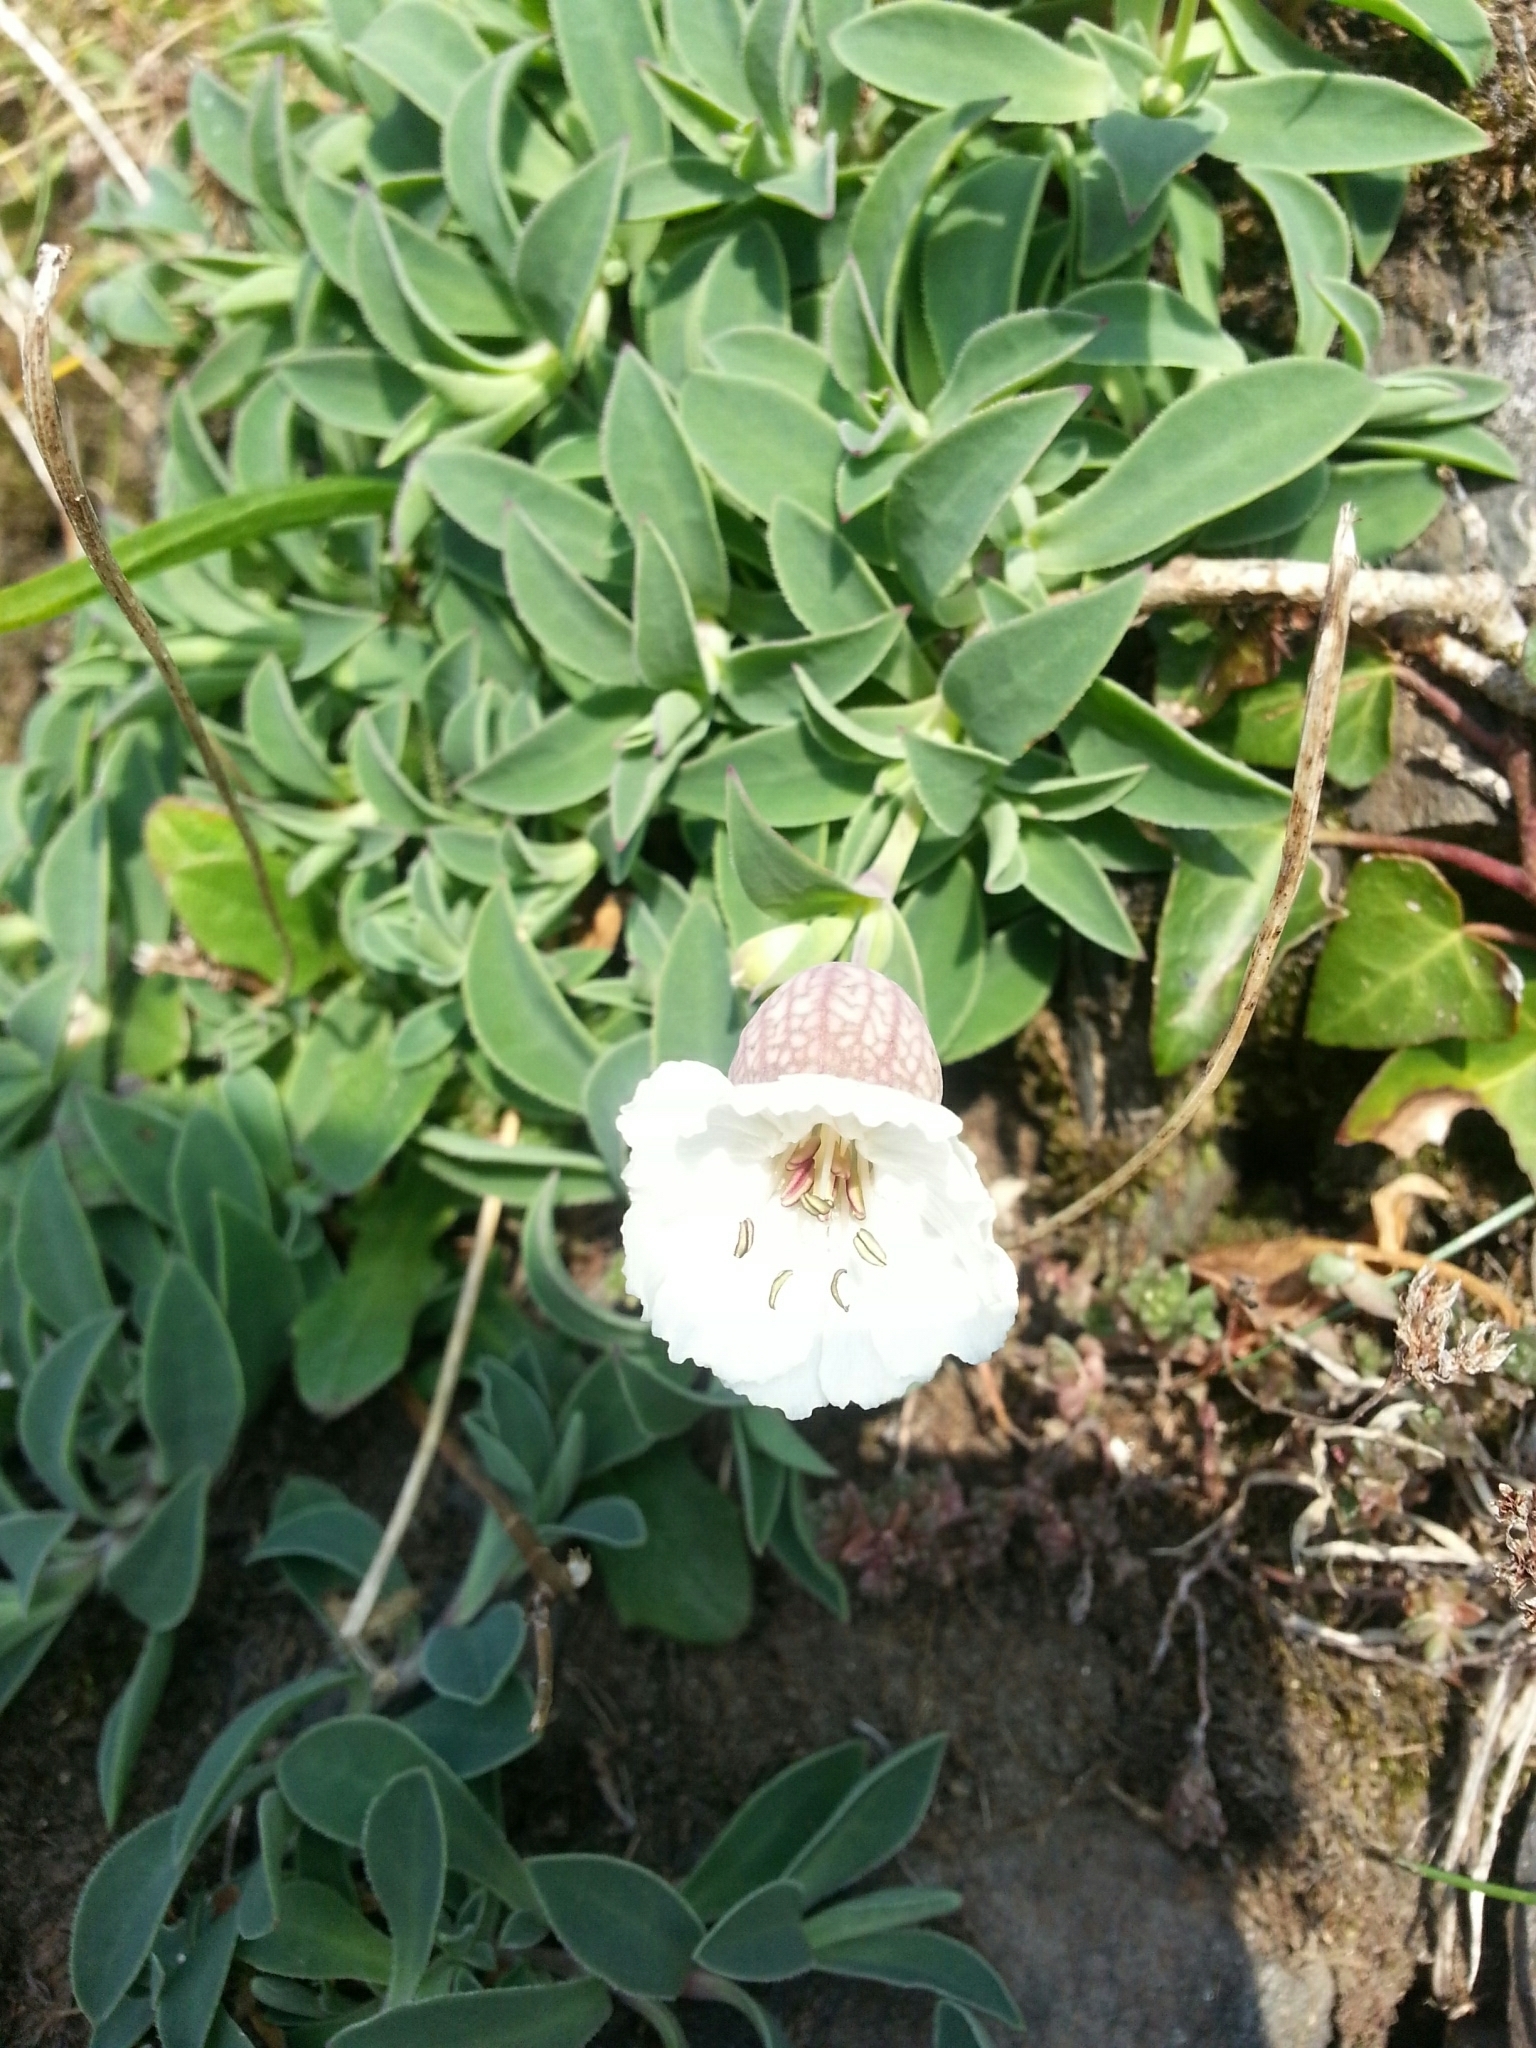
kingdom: Plantae
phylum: Tracheophyta
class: Magnoliopsida
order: Caryophyllales
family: Caryophyllaceae
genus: Silene
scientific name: Silene uniflora
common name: Sea campion
